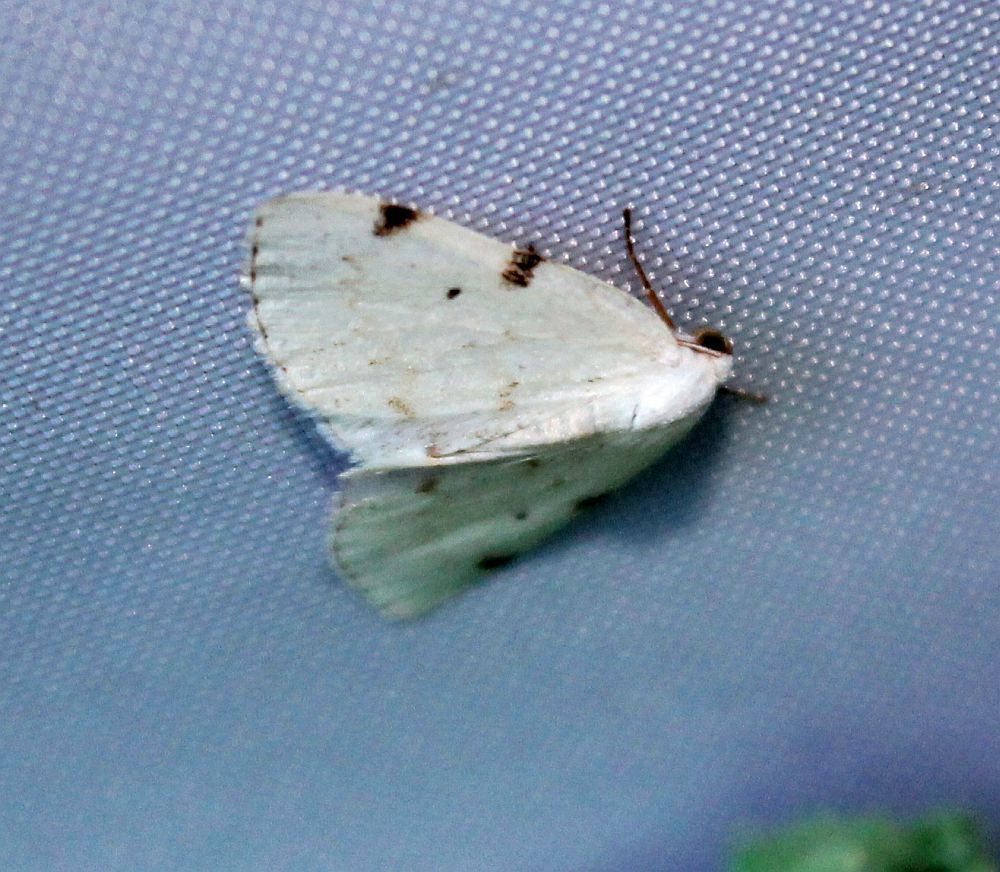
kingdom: Animalia
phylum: Arthropoda
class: Insecta
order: Lepidoptera
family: Geometridae
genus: Lomographa
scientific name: Lomographa bimaculata
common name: White-pinion spotted
